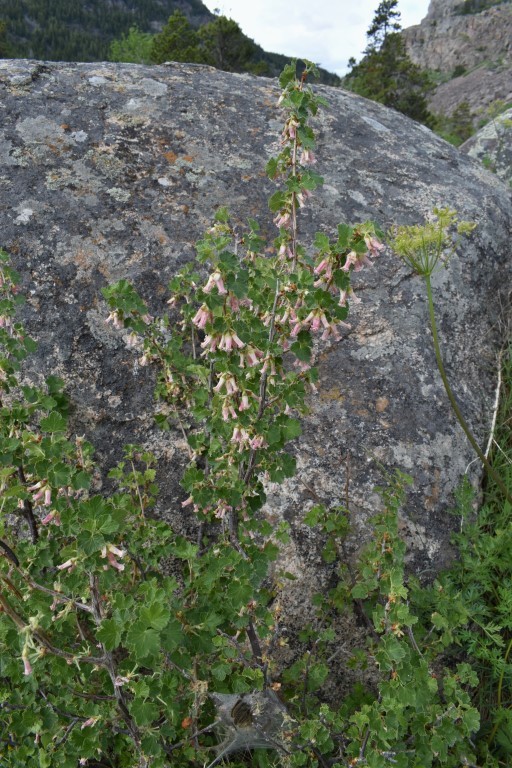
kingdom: Plantae
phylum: Tracheophyta
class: Magnoliopsida
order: Saxifragales
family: Grossulariaceae
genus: Ribes
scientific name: Ribes cereum
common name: Wax currant
